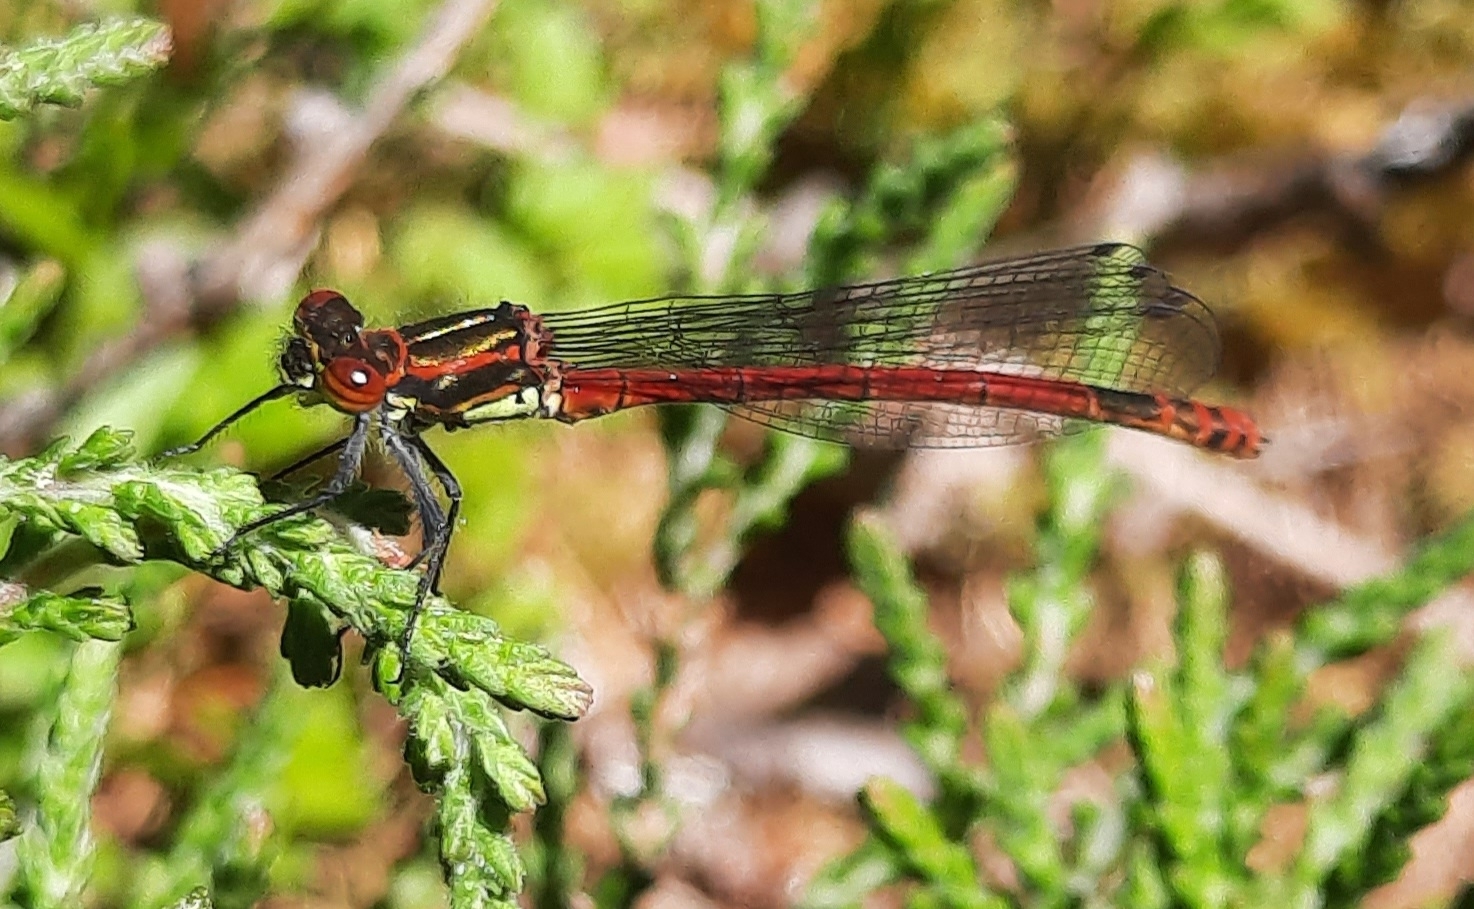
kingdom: Animalia
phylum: Arthropoda
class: Insecta
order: Odonata
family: Coenagrionidae
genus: Pyrrhosoma
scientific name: Pyrrhosoma nymphula
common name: Large red damsel
